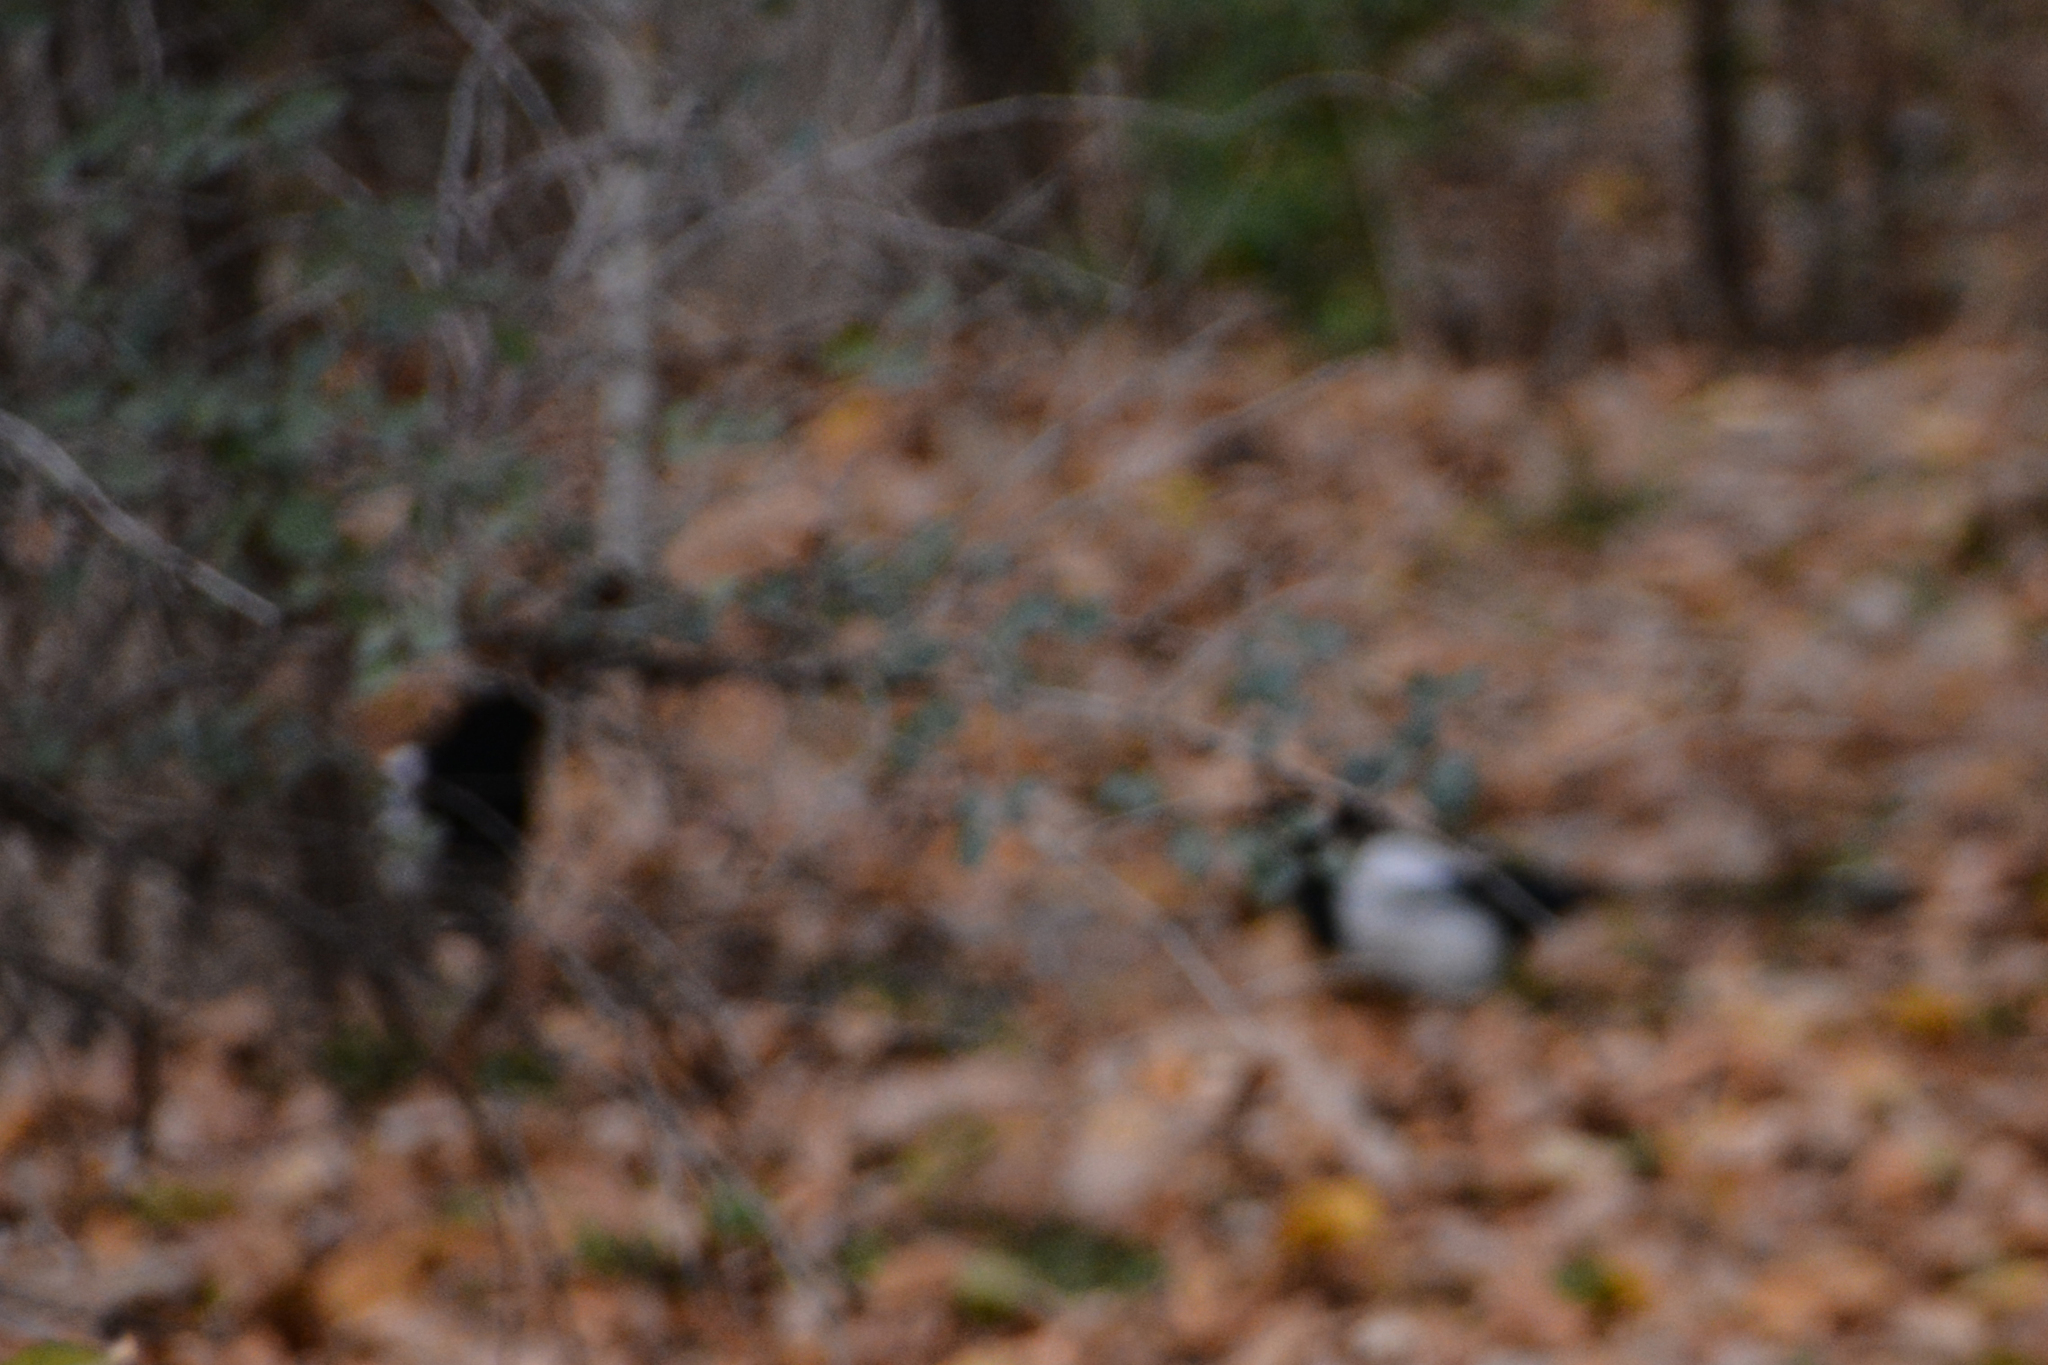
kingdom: Animalia
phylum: Chordata
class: Aves
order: Passeriformes
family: Corvidae
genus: Pica
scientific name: Pica pica
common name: Eurasian magpie
